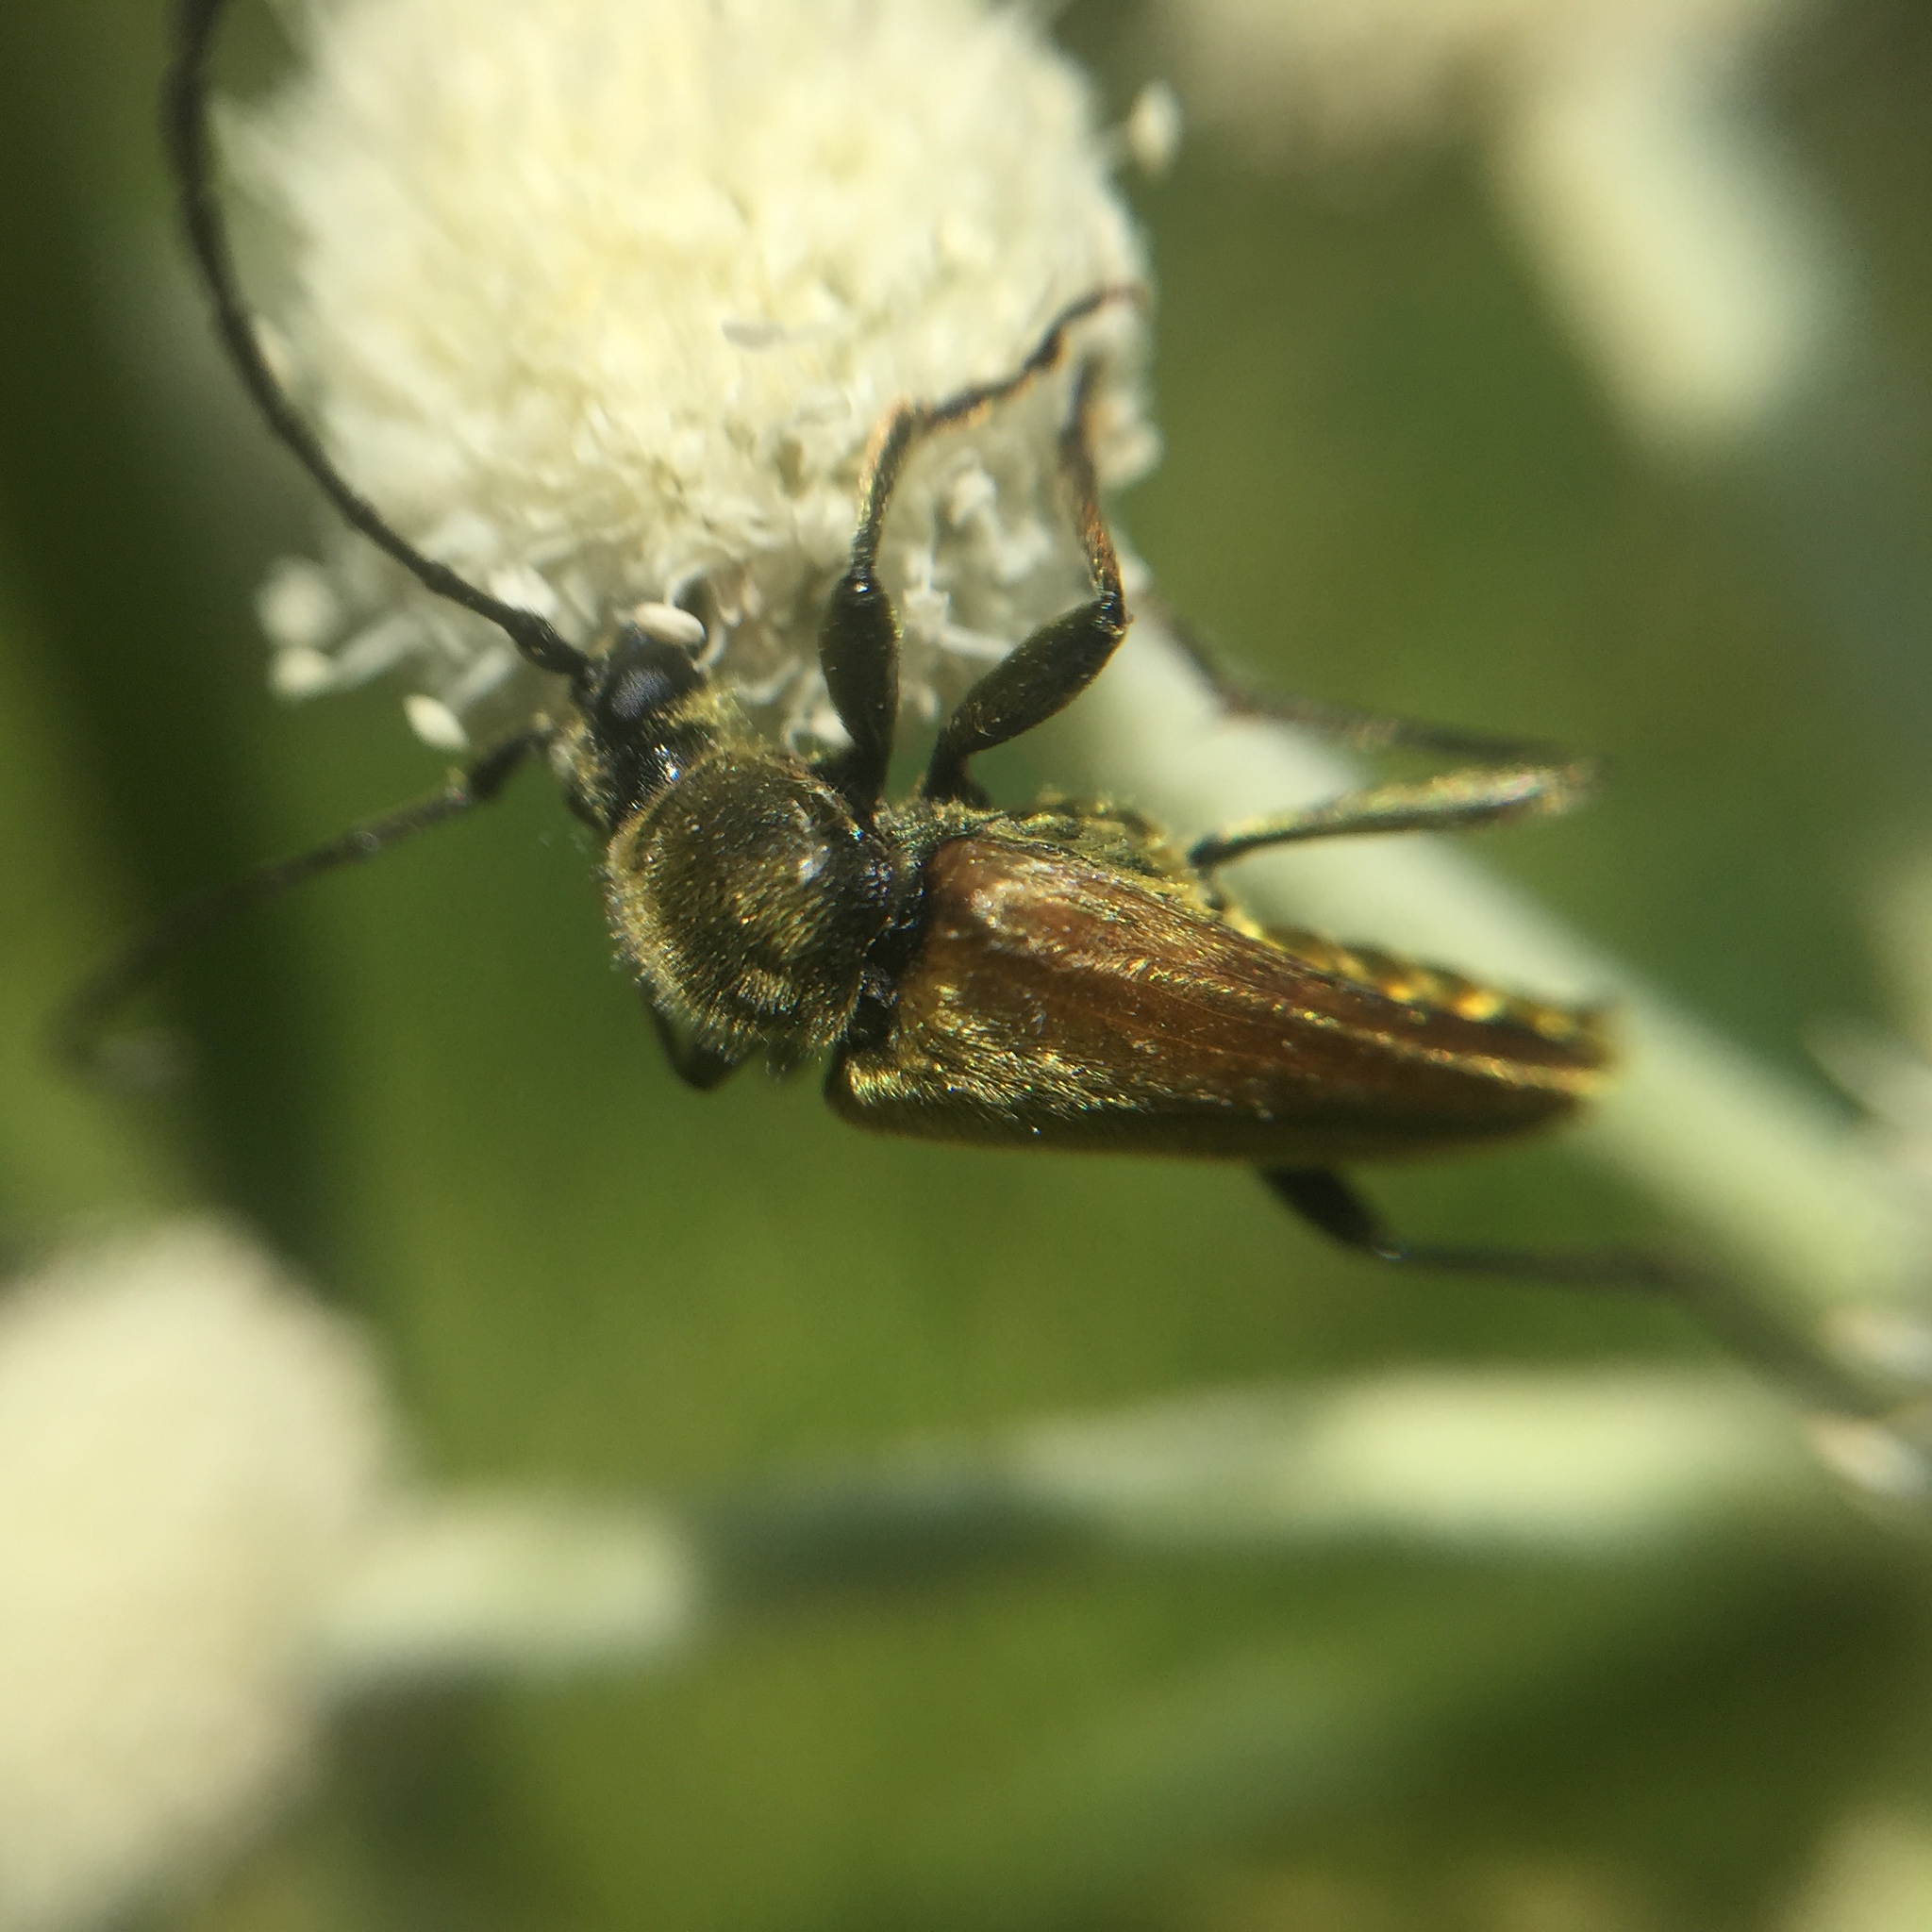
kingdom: Animalia
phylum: Arthropoda
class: Insecta
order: Coleoptera
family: Cerambycidae
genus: Cosmosalia
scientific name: Cosmosalia chrysocoma
